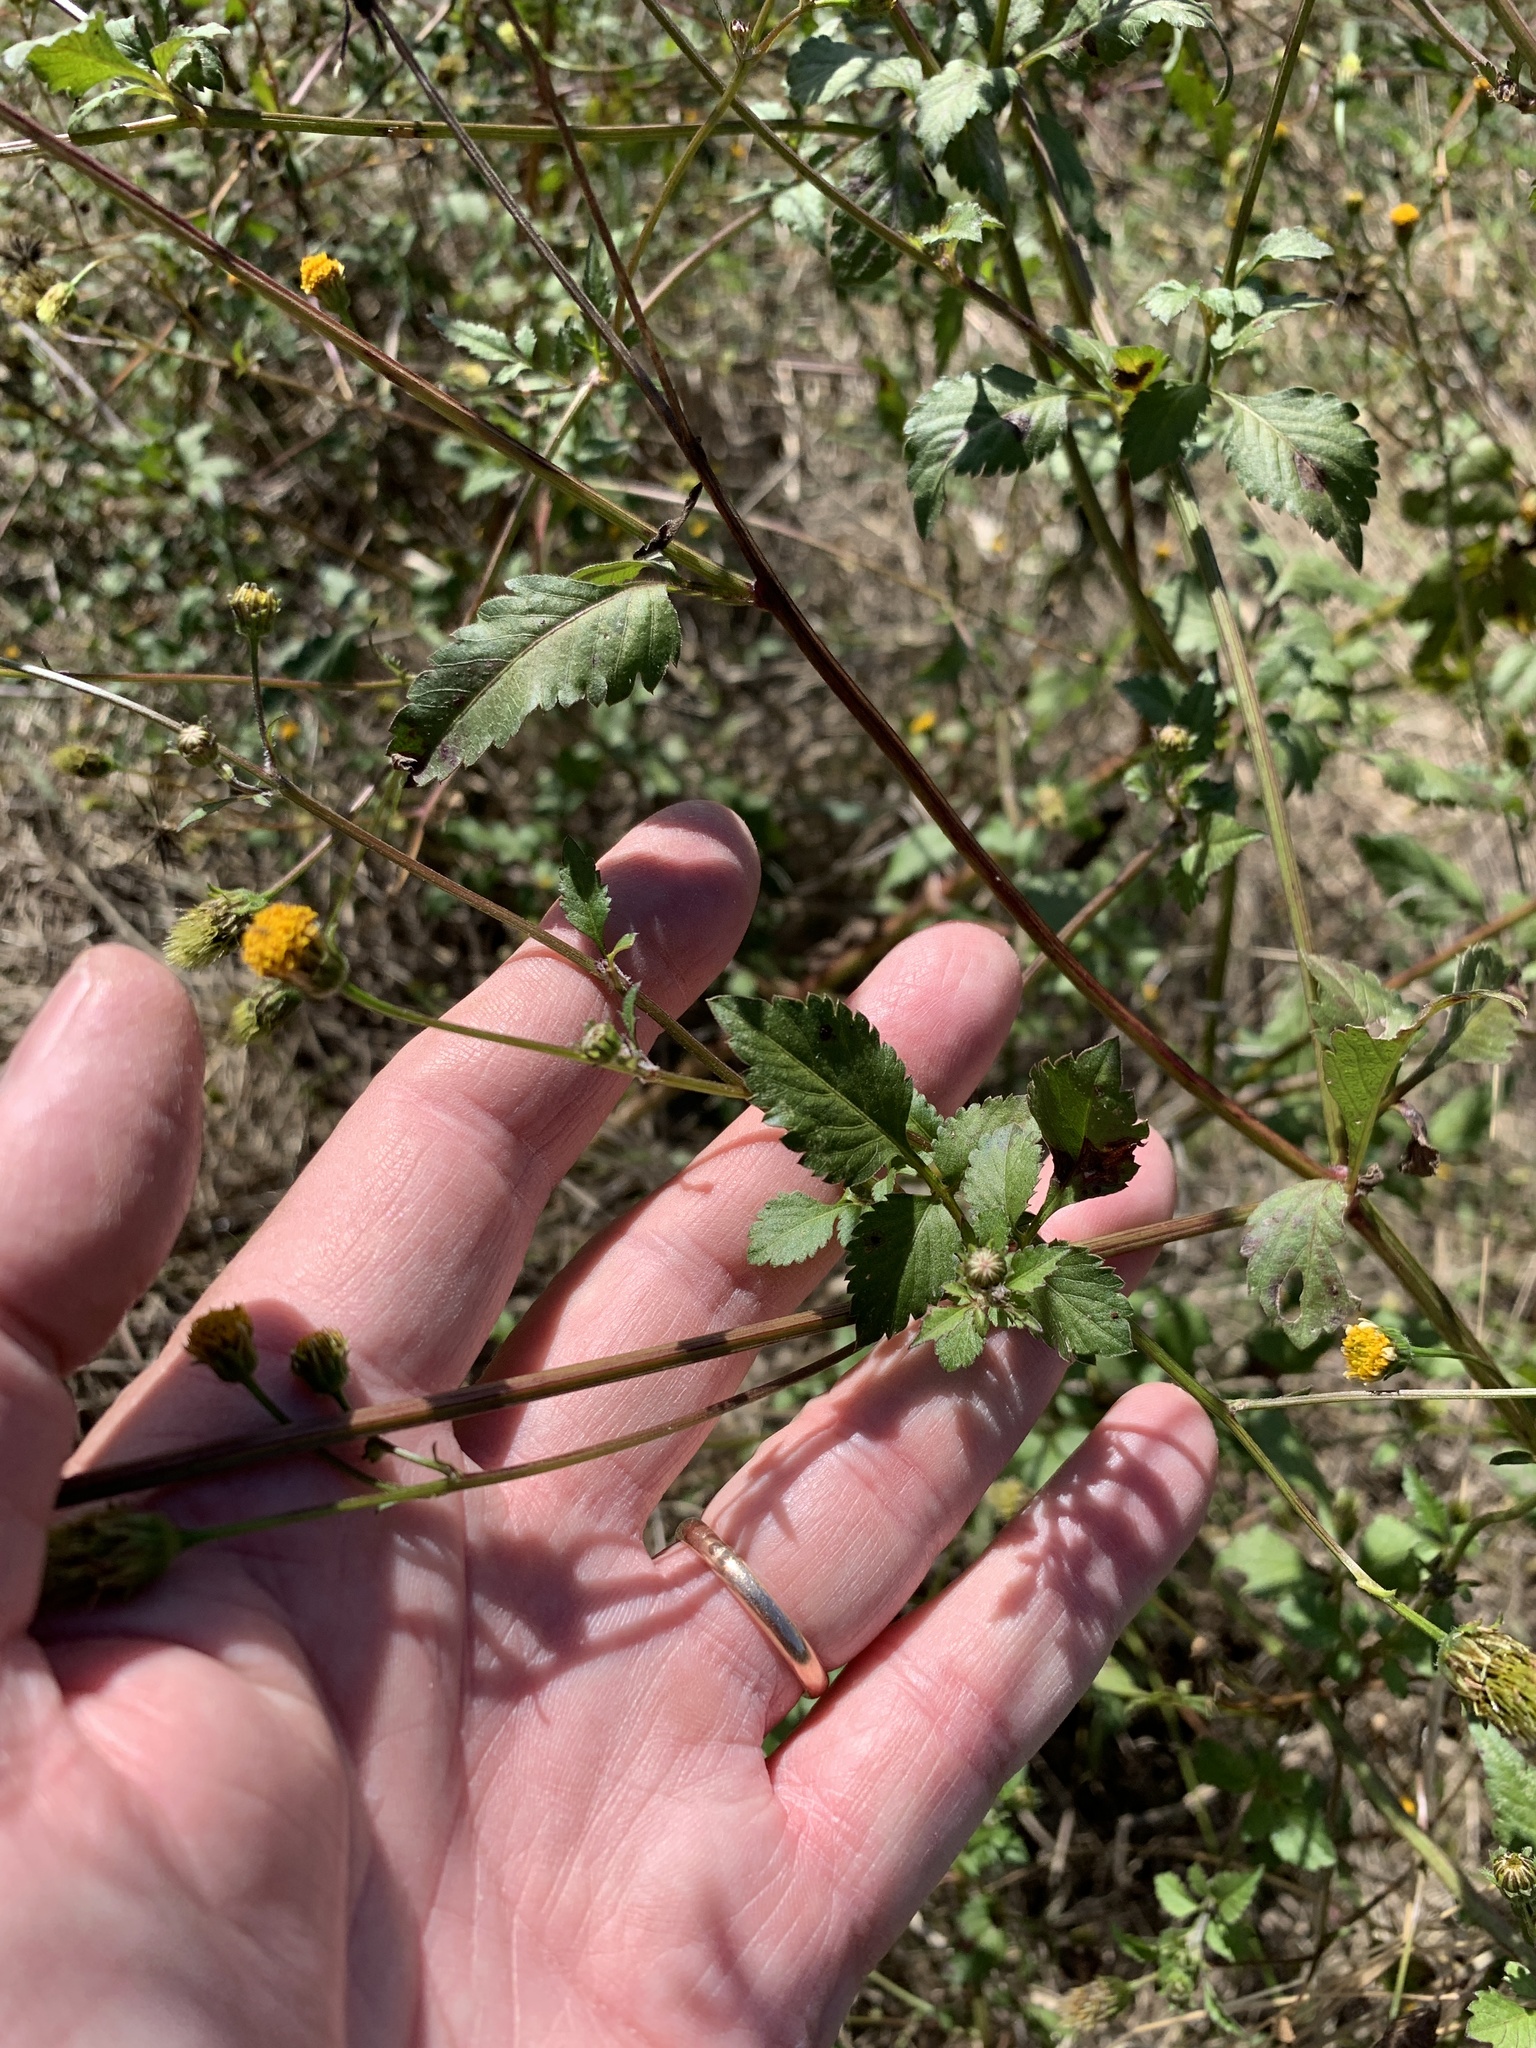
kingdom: Plantae
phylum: Tracheophyta
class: Magnoliopsida
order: Asterales
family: Asteraceae
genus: Bidens
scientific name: Bidens pilosa
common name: Black-jack
